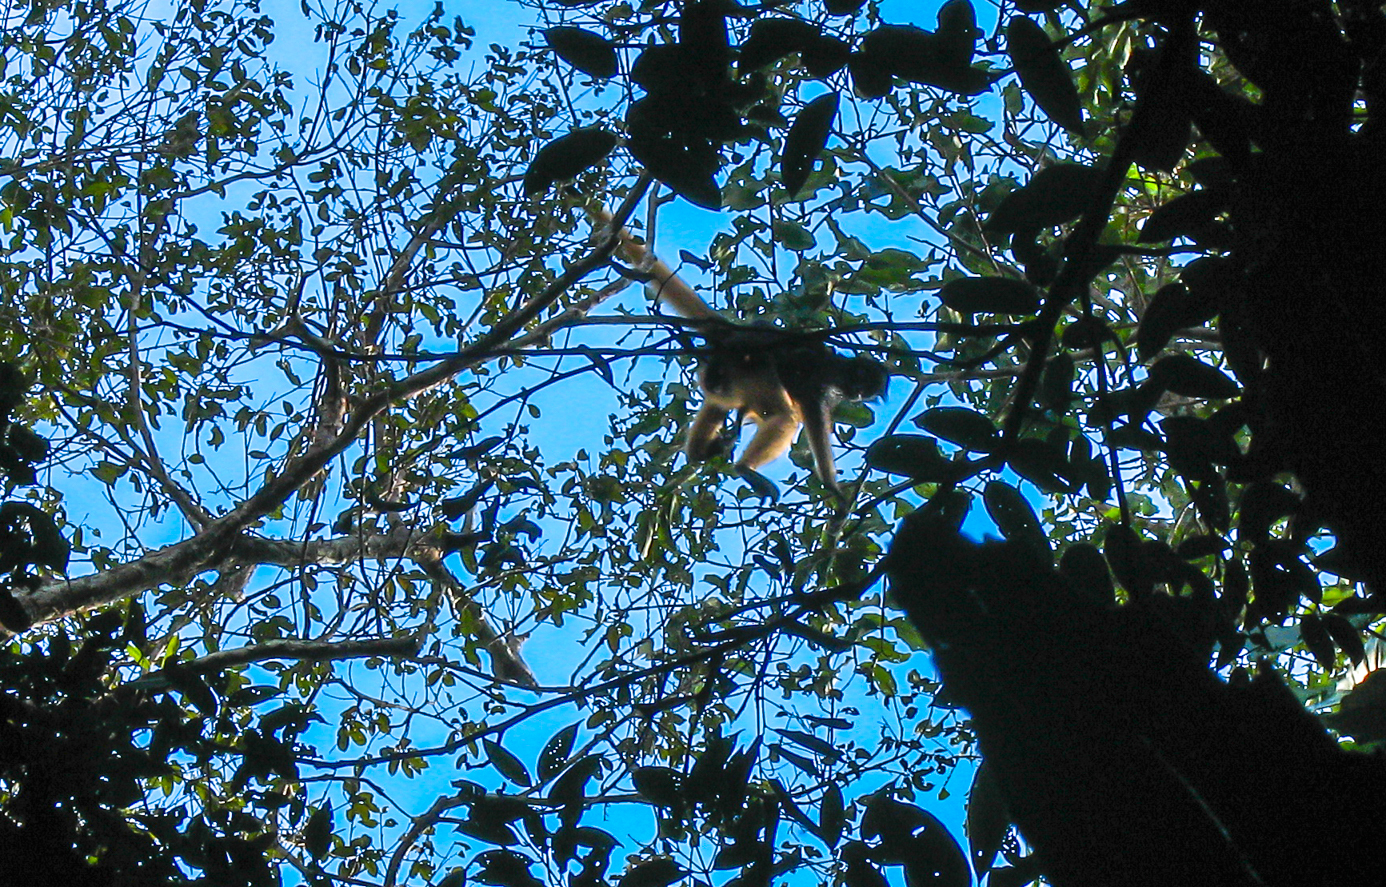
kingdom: Animalia
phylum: Chordata
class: Mammalia
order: Primates
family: Atelidae
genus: Ateles
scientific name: Ateles belzebuth
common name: White-fronted spider monkey
